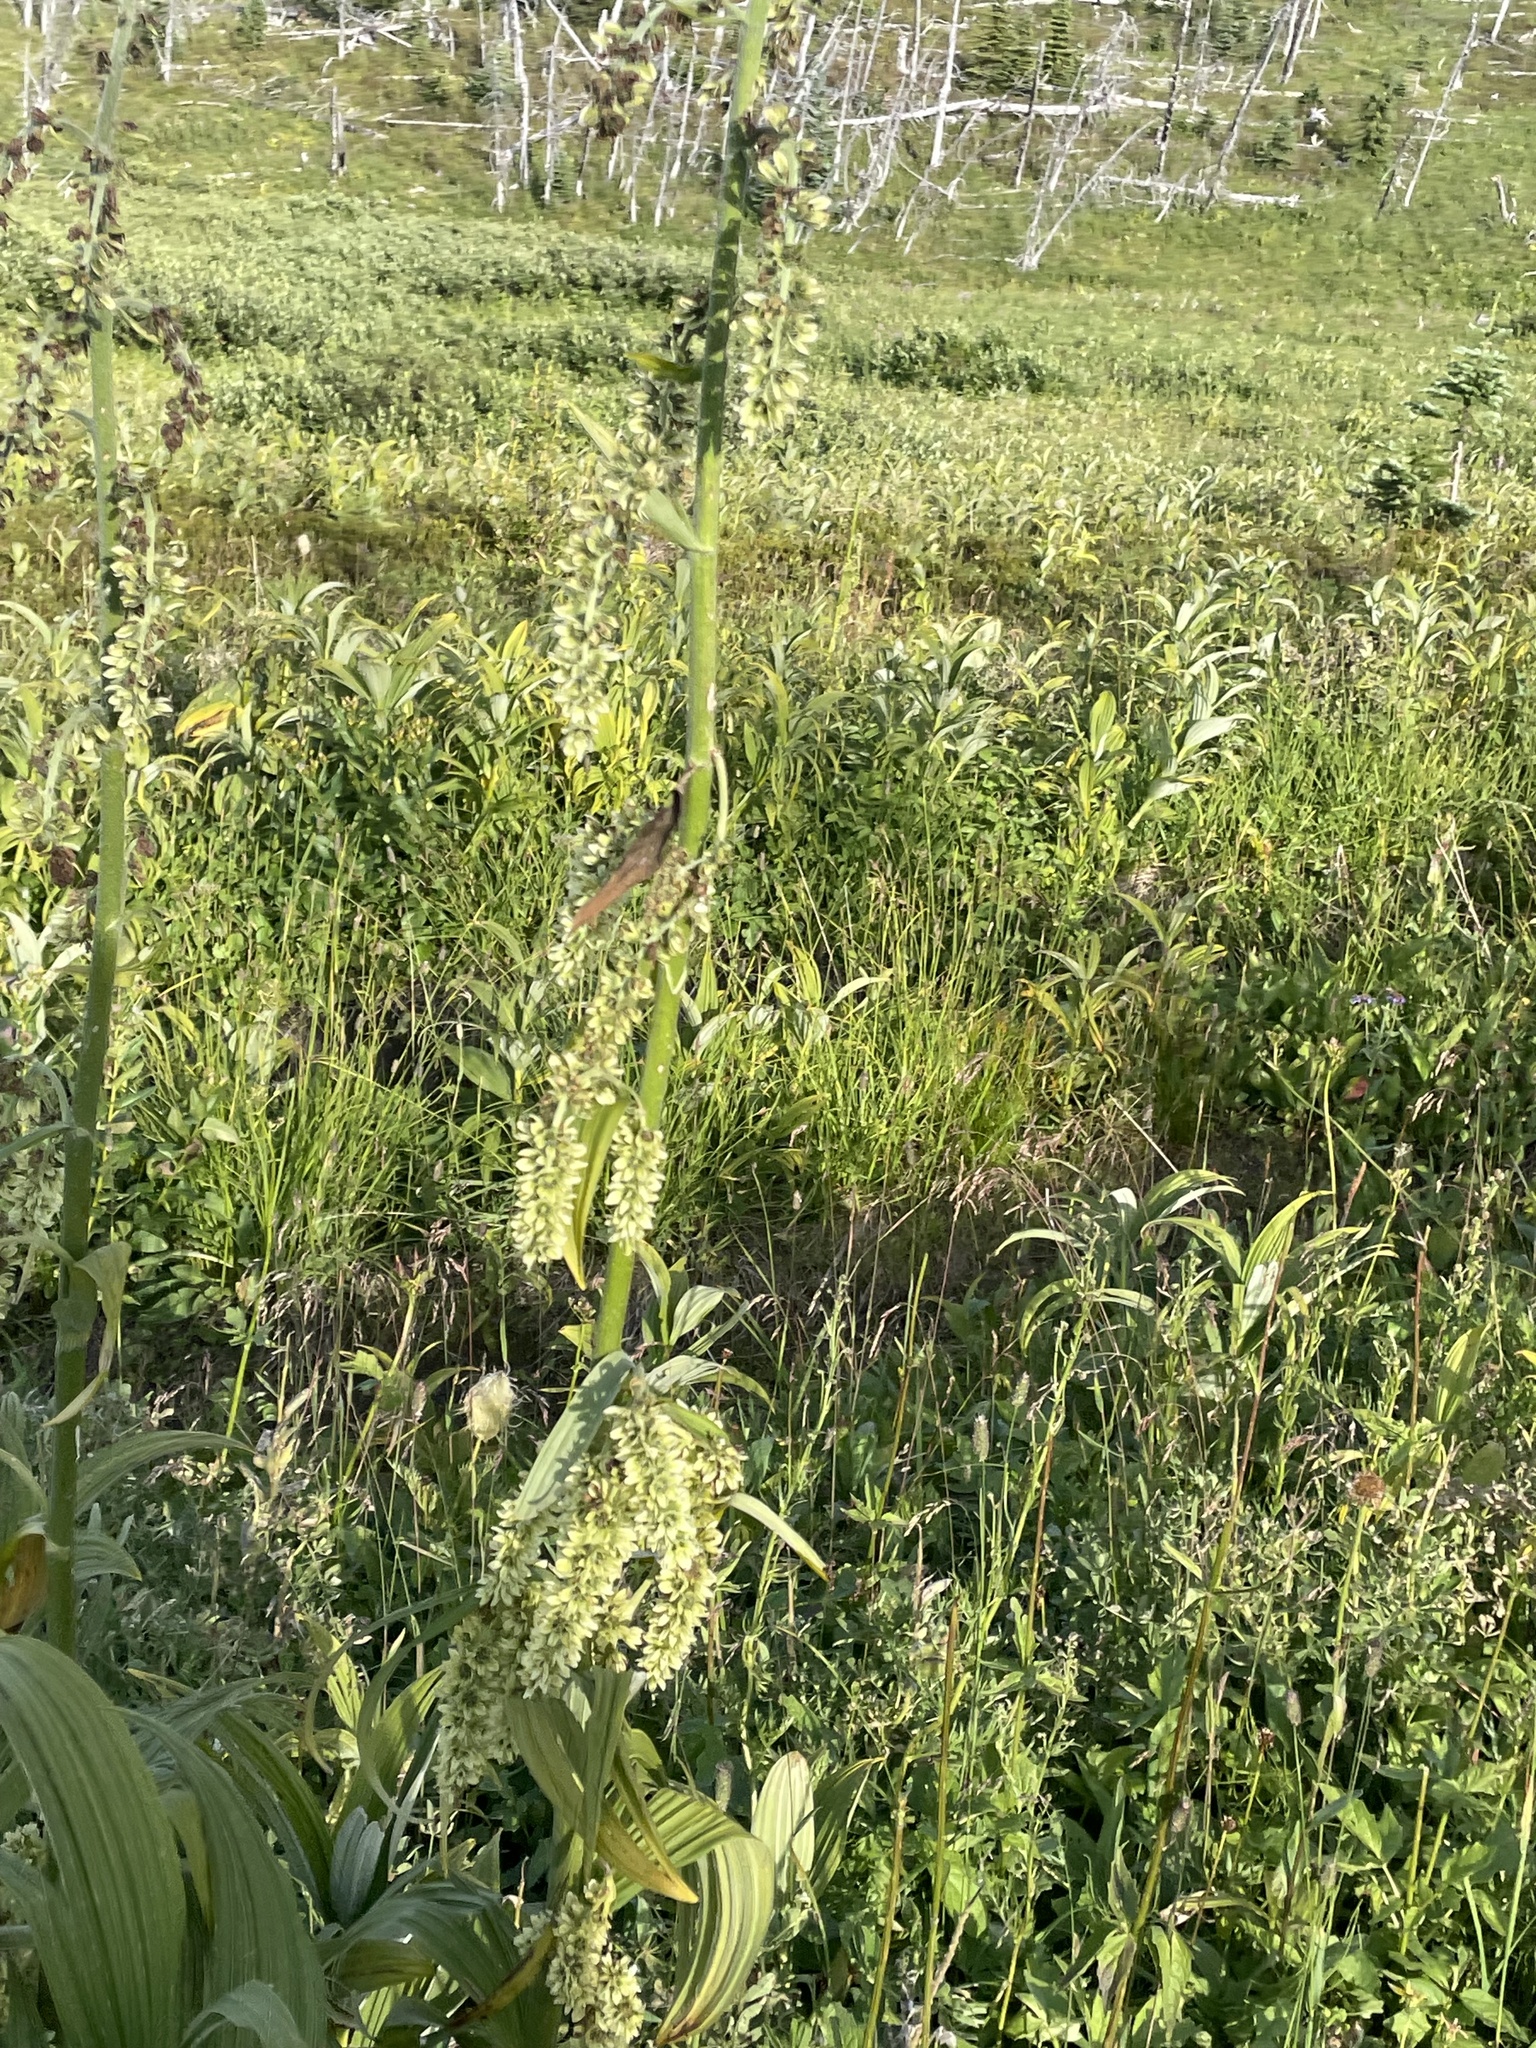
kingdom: Plantae
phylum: Tracheophyta
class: Liliopsida
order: Liliales
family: Melanthiaceae
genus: Veratrum
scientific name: Veratrum viride
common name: American false hellebore
